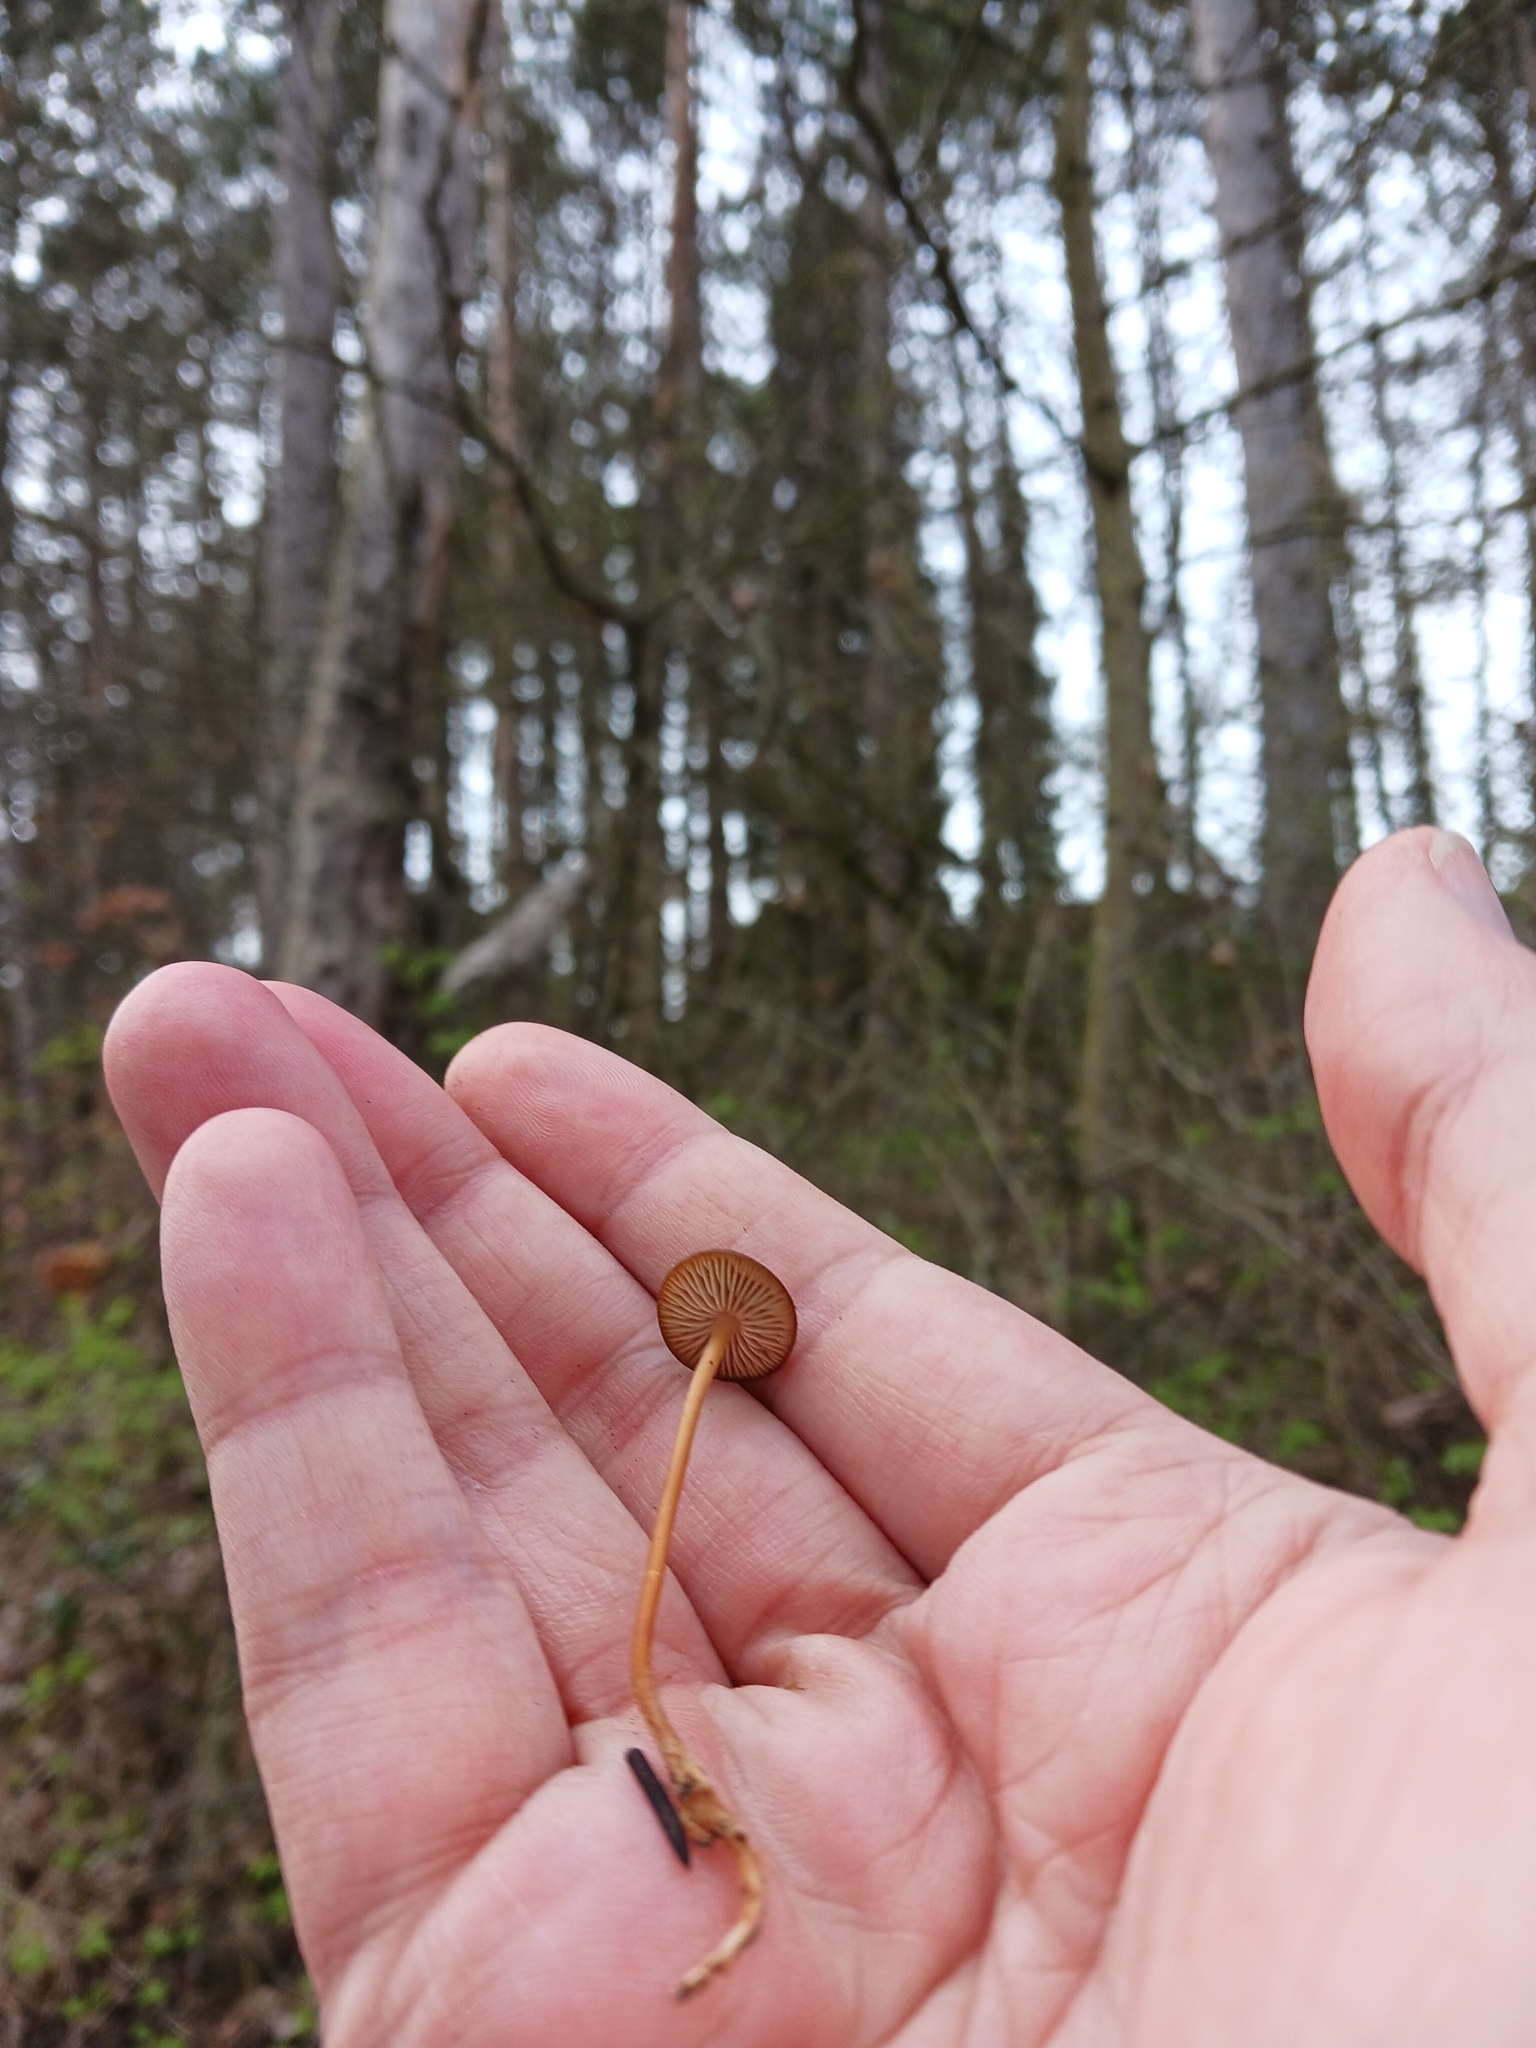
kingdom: Fungi
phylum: Basidiomycota
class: Agaricomycetes
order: Agaricales
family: Physalacriaceae
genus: Strobilurus
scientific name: Strobilurus tenacellus
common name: Pinecone cap
